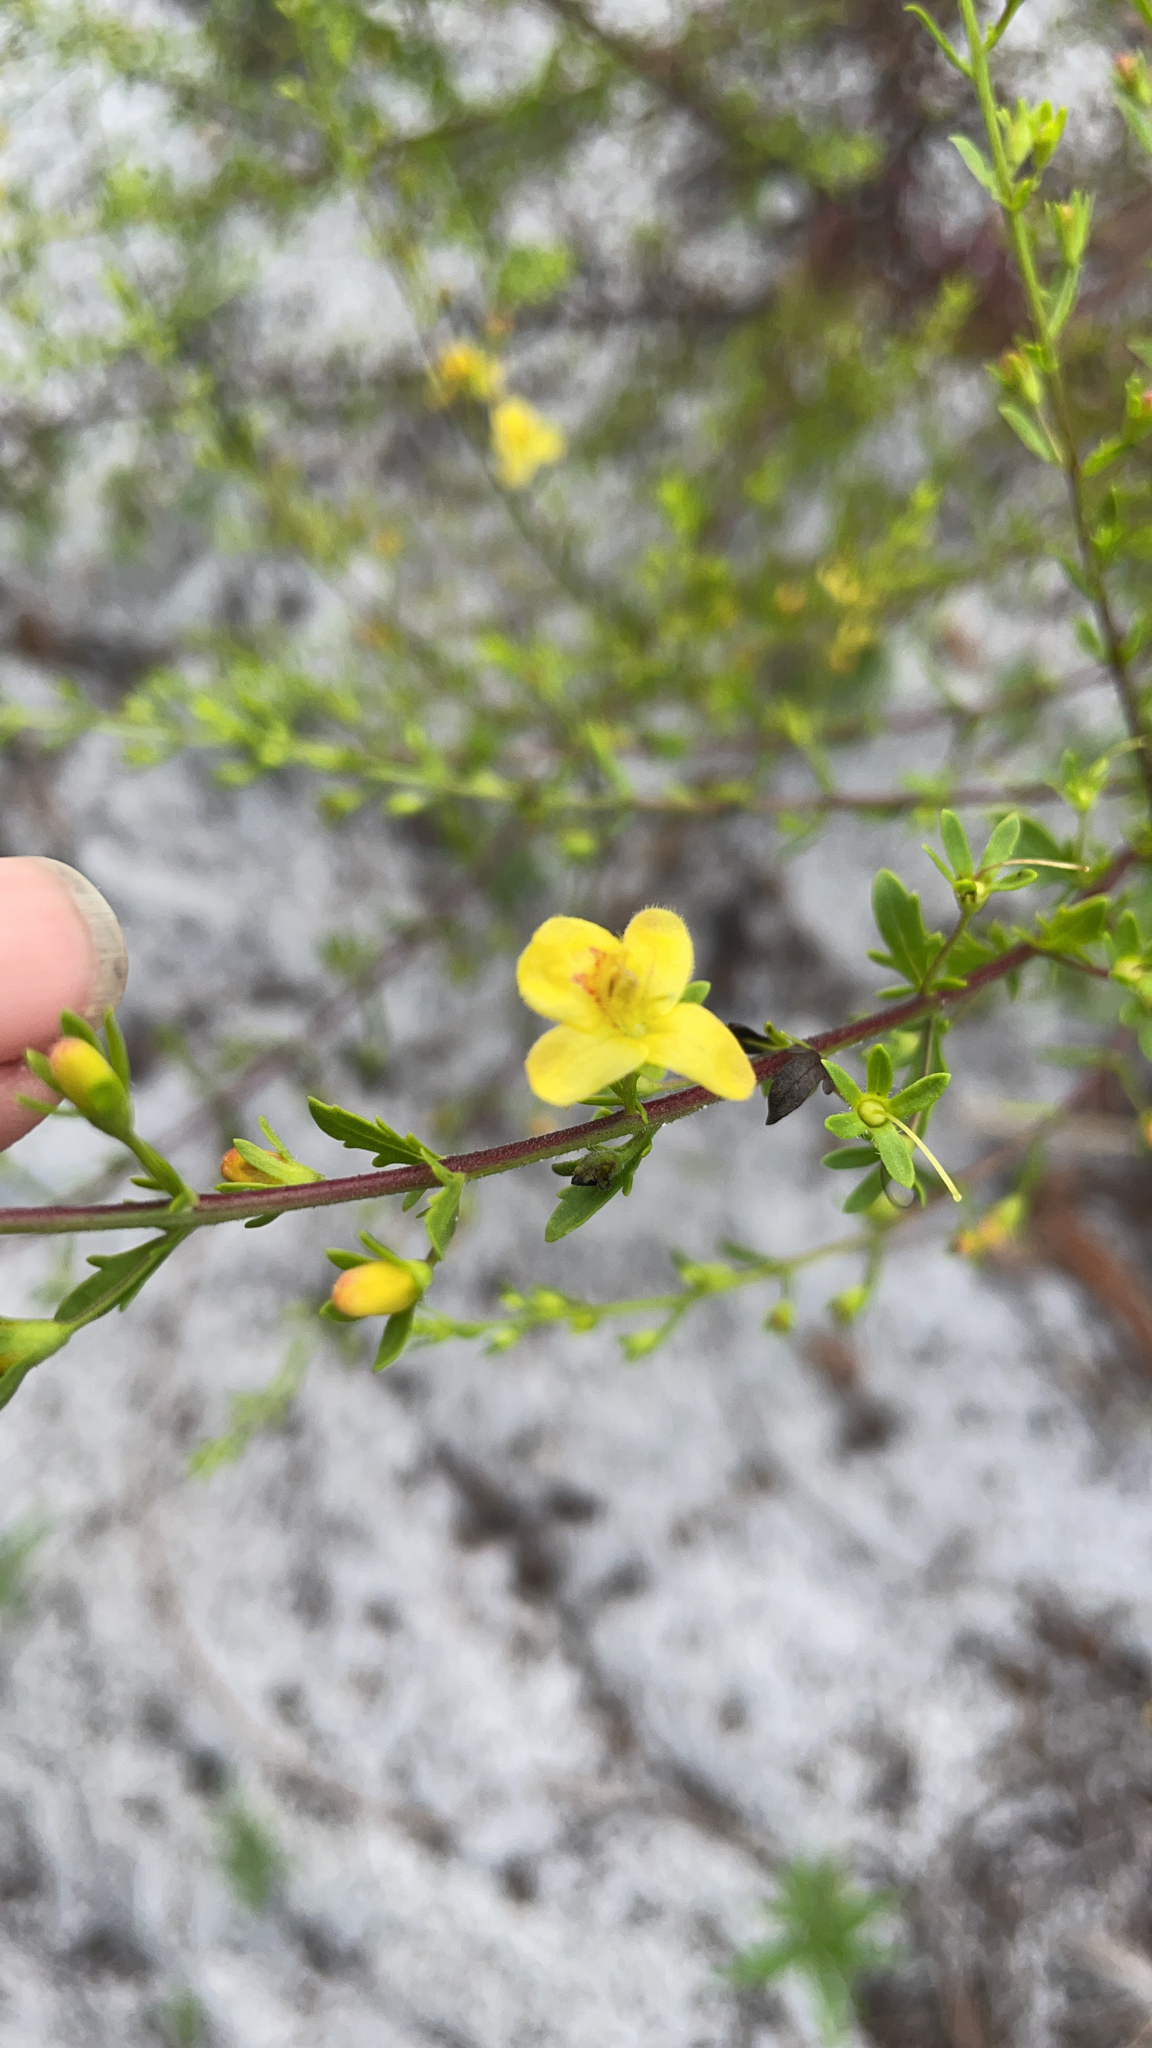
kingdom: Plantae
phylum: Tracheophyta
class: Magnoliopsida
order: Lamiales
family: Orobanchaceae
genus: Seymeria
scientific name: Seymeria pectinata
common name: Piedmont black-senna
